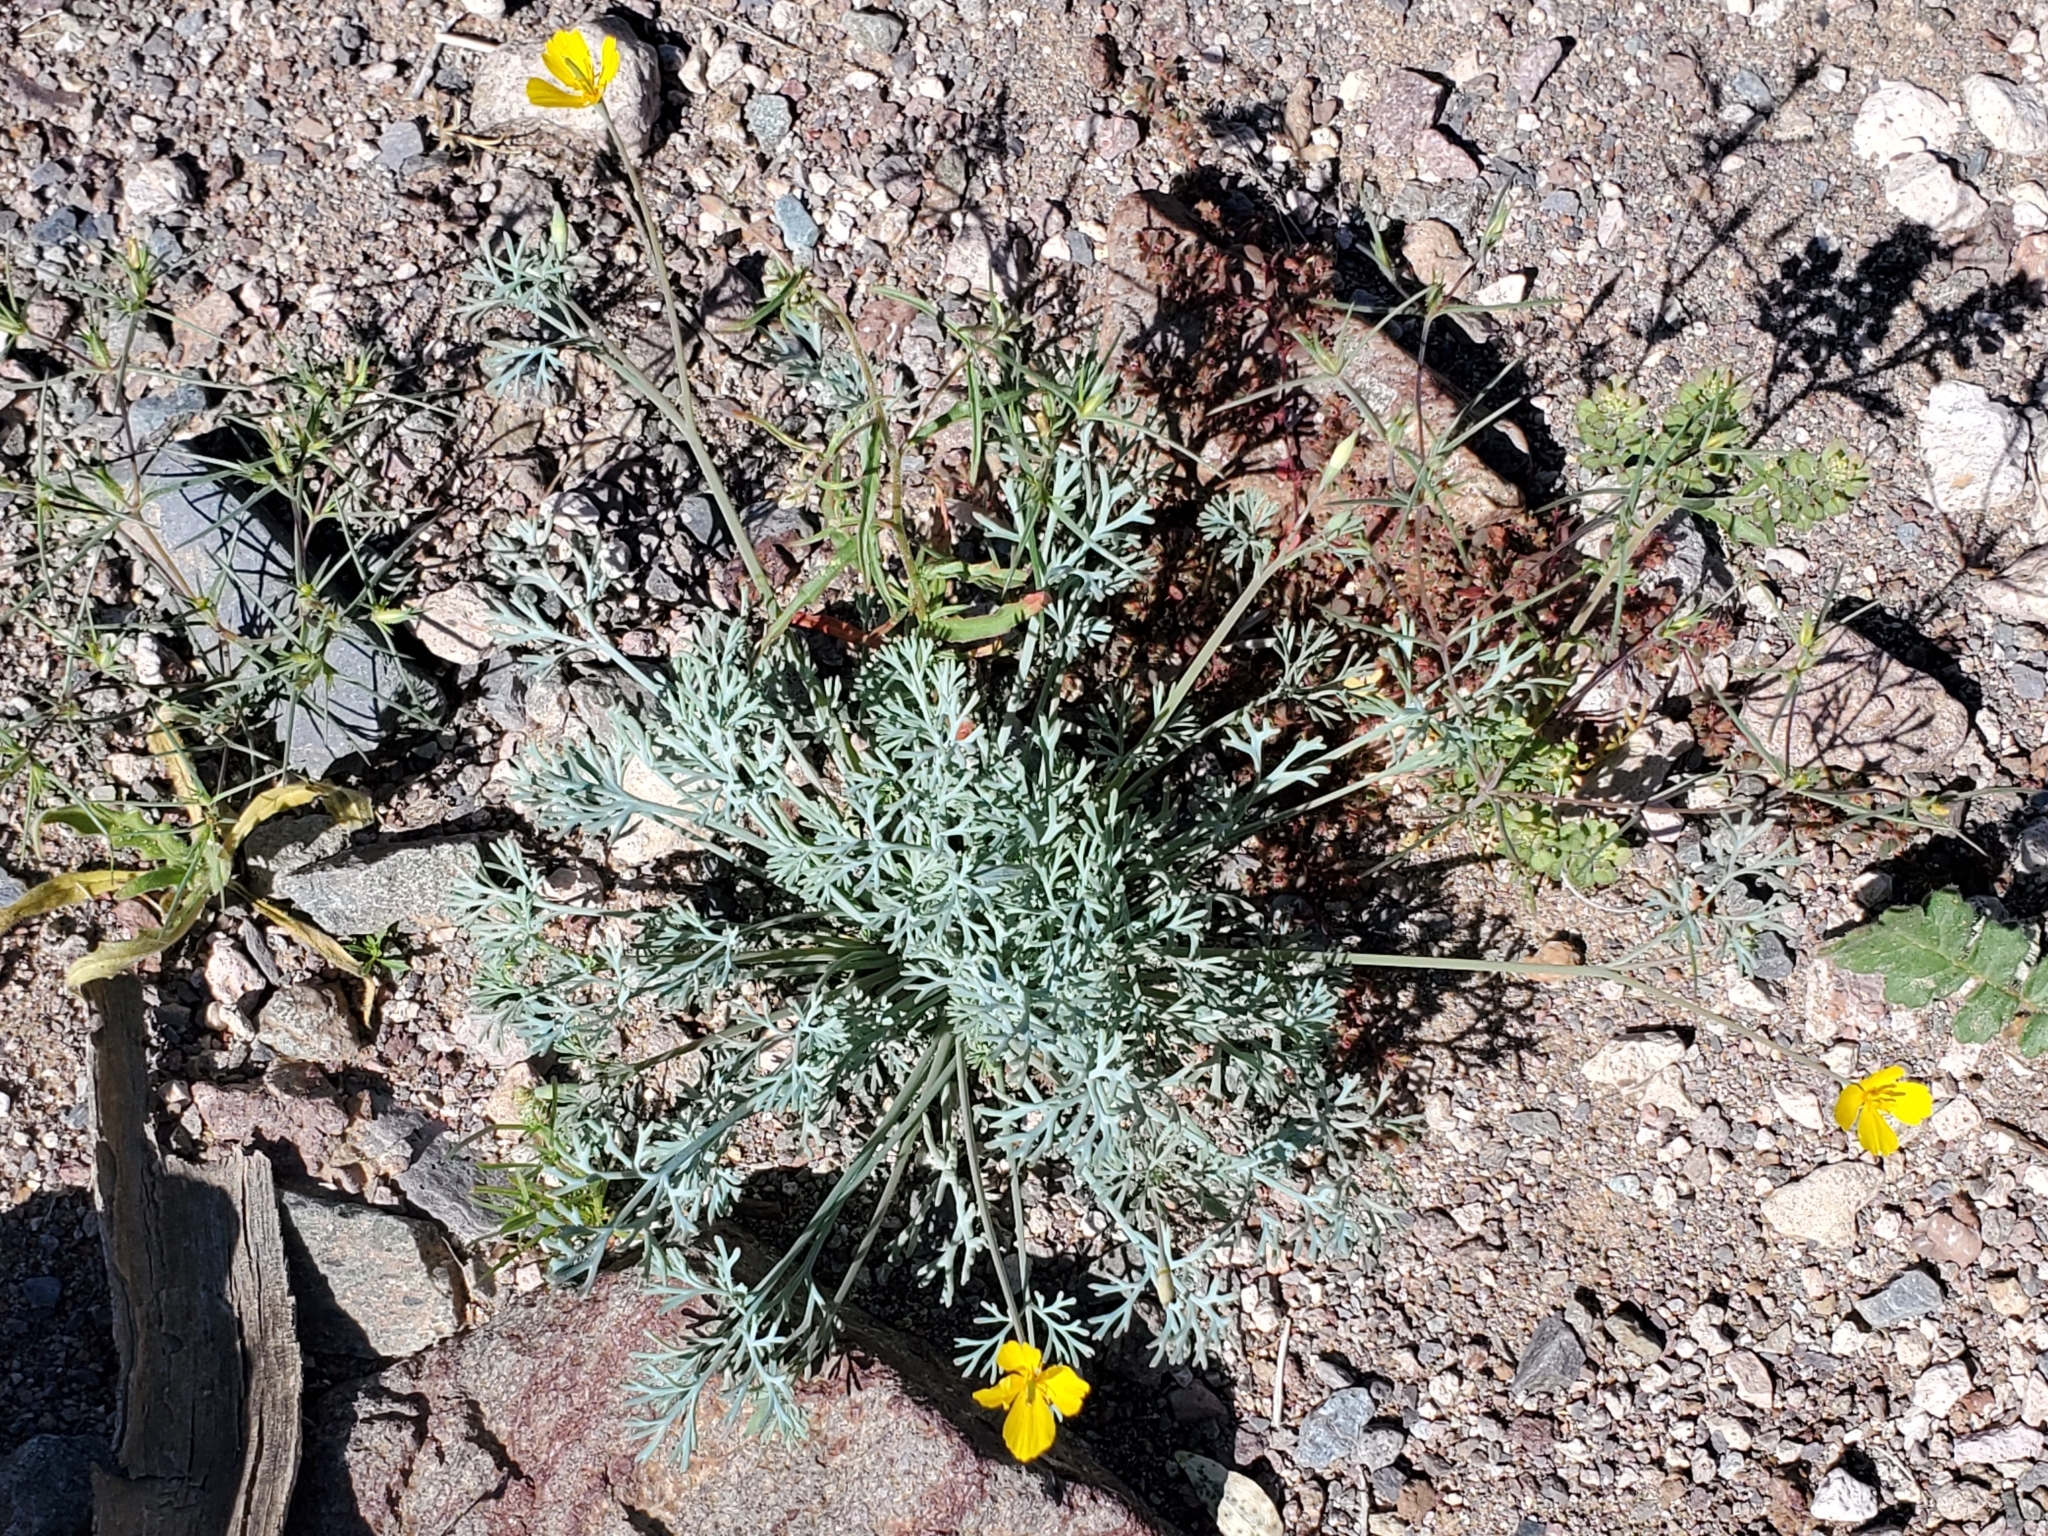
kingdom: Plantae
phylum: Tracheophyta
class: Magnoliopsida
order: Ranunculales
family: Papaveraceae
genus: Eschscholzia
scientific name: Eschscholzia minutiflora
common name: Small-flower california-poppy
